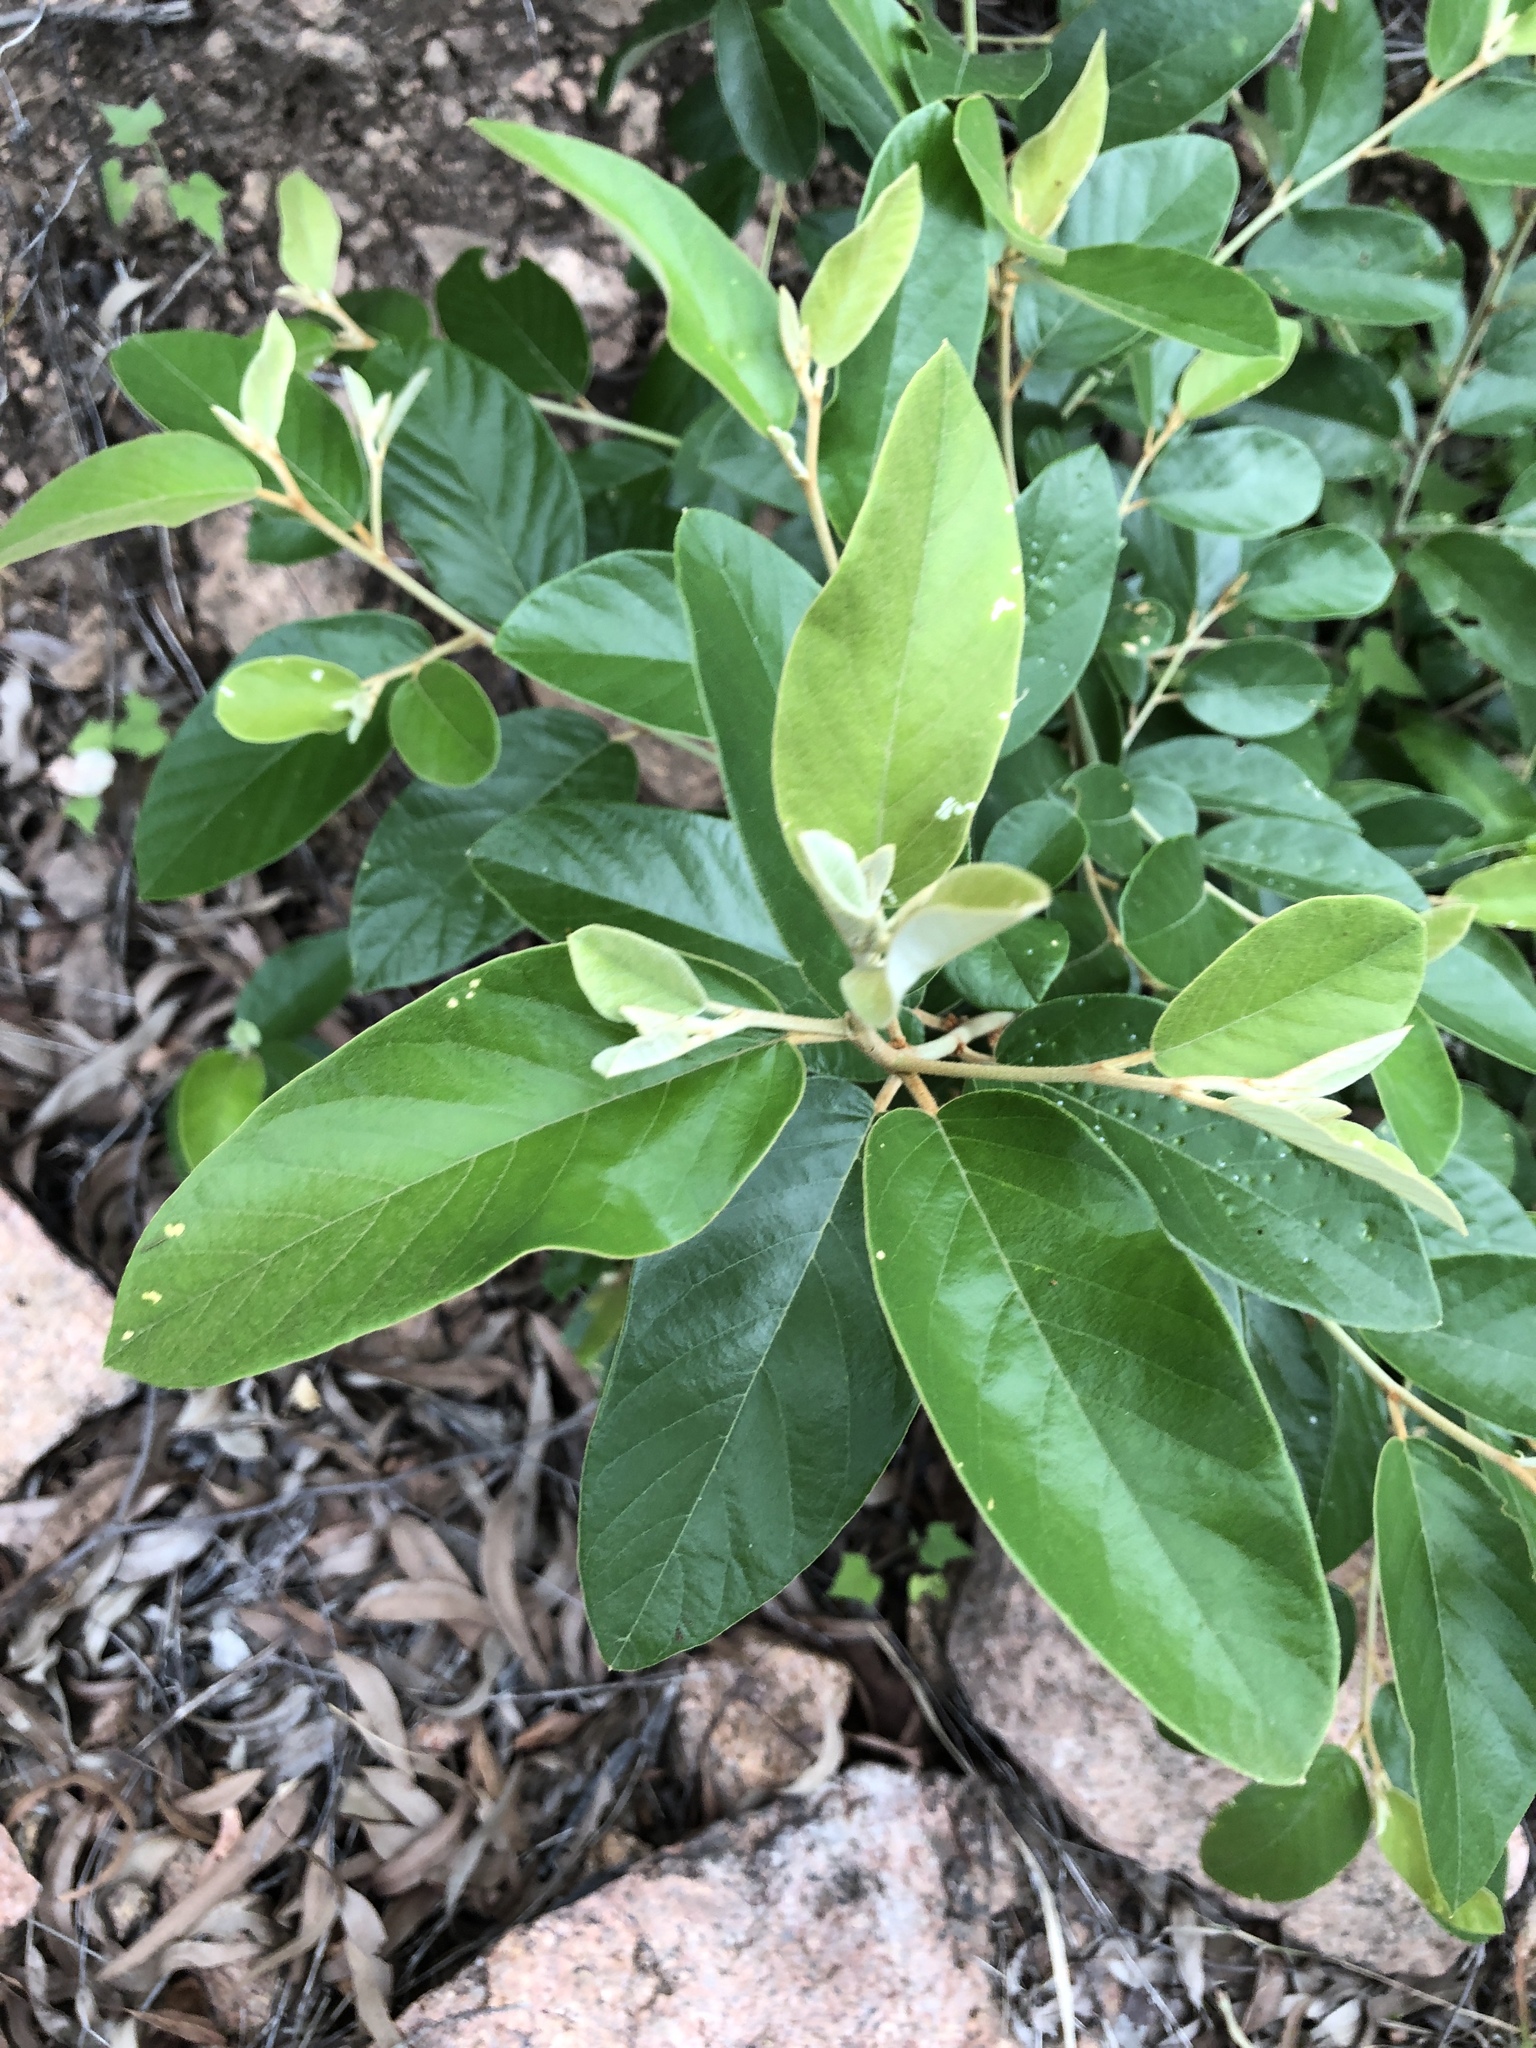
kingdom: Plantae
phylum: Tracheophyta
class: Magnoliopsida
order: Rosales
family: Rhamnaceae
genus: Alphitonia
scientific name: Alphitonia excelsa
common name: Red ash
